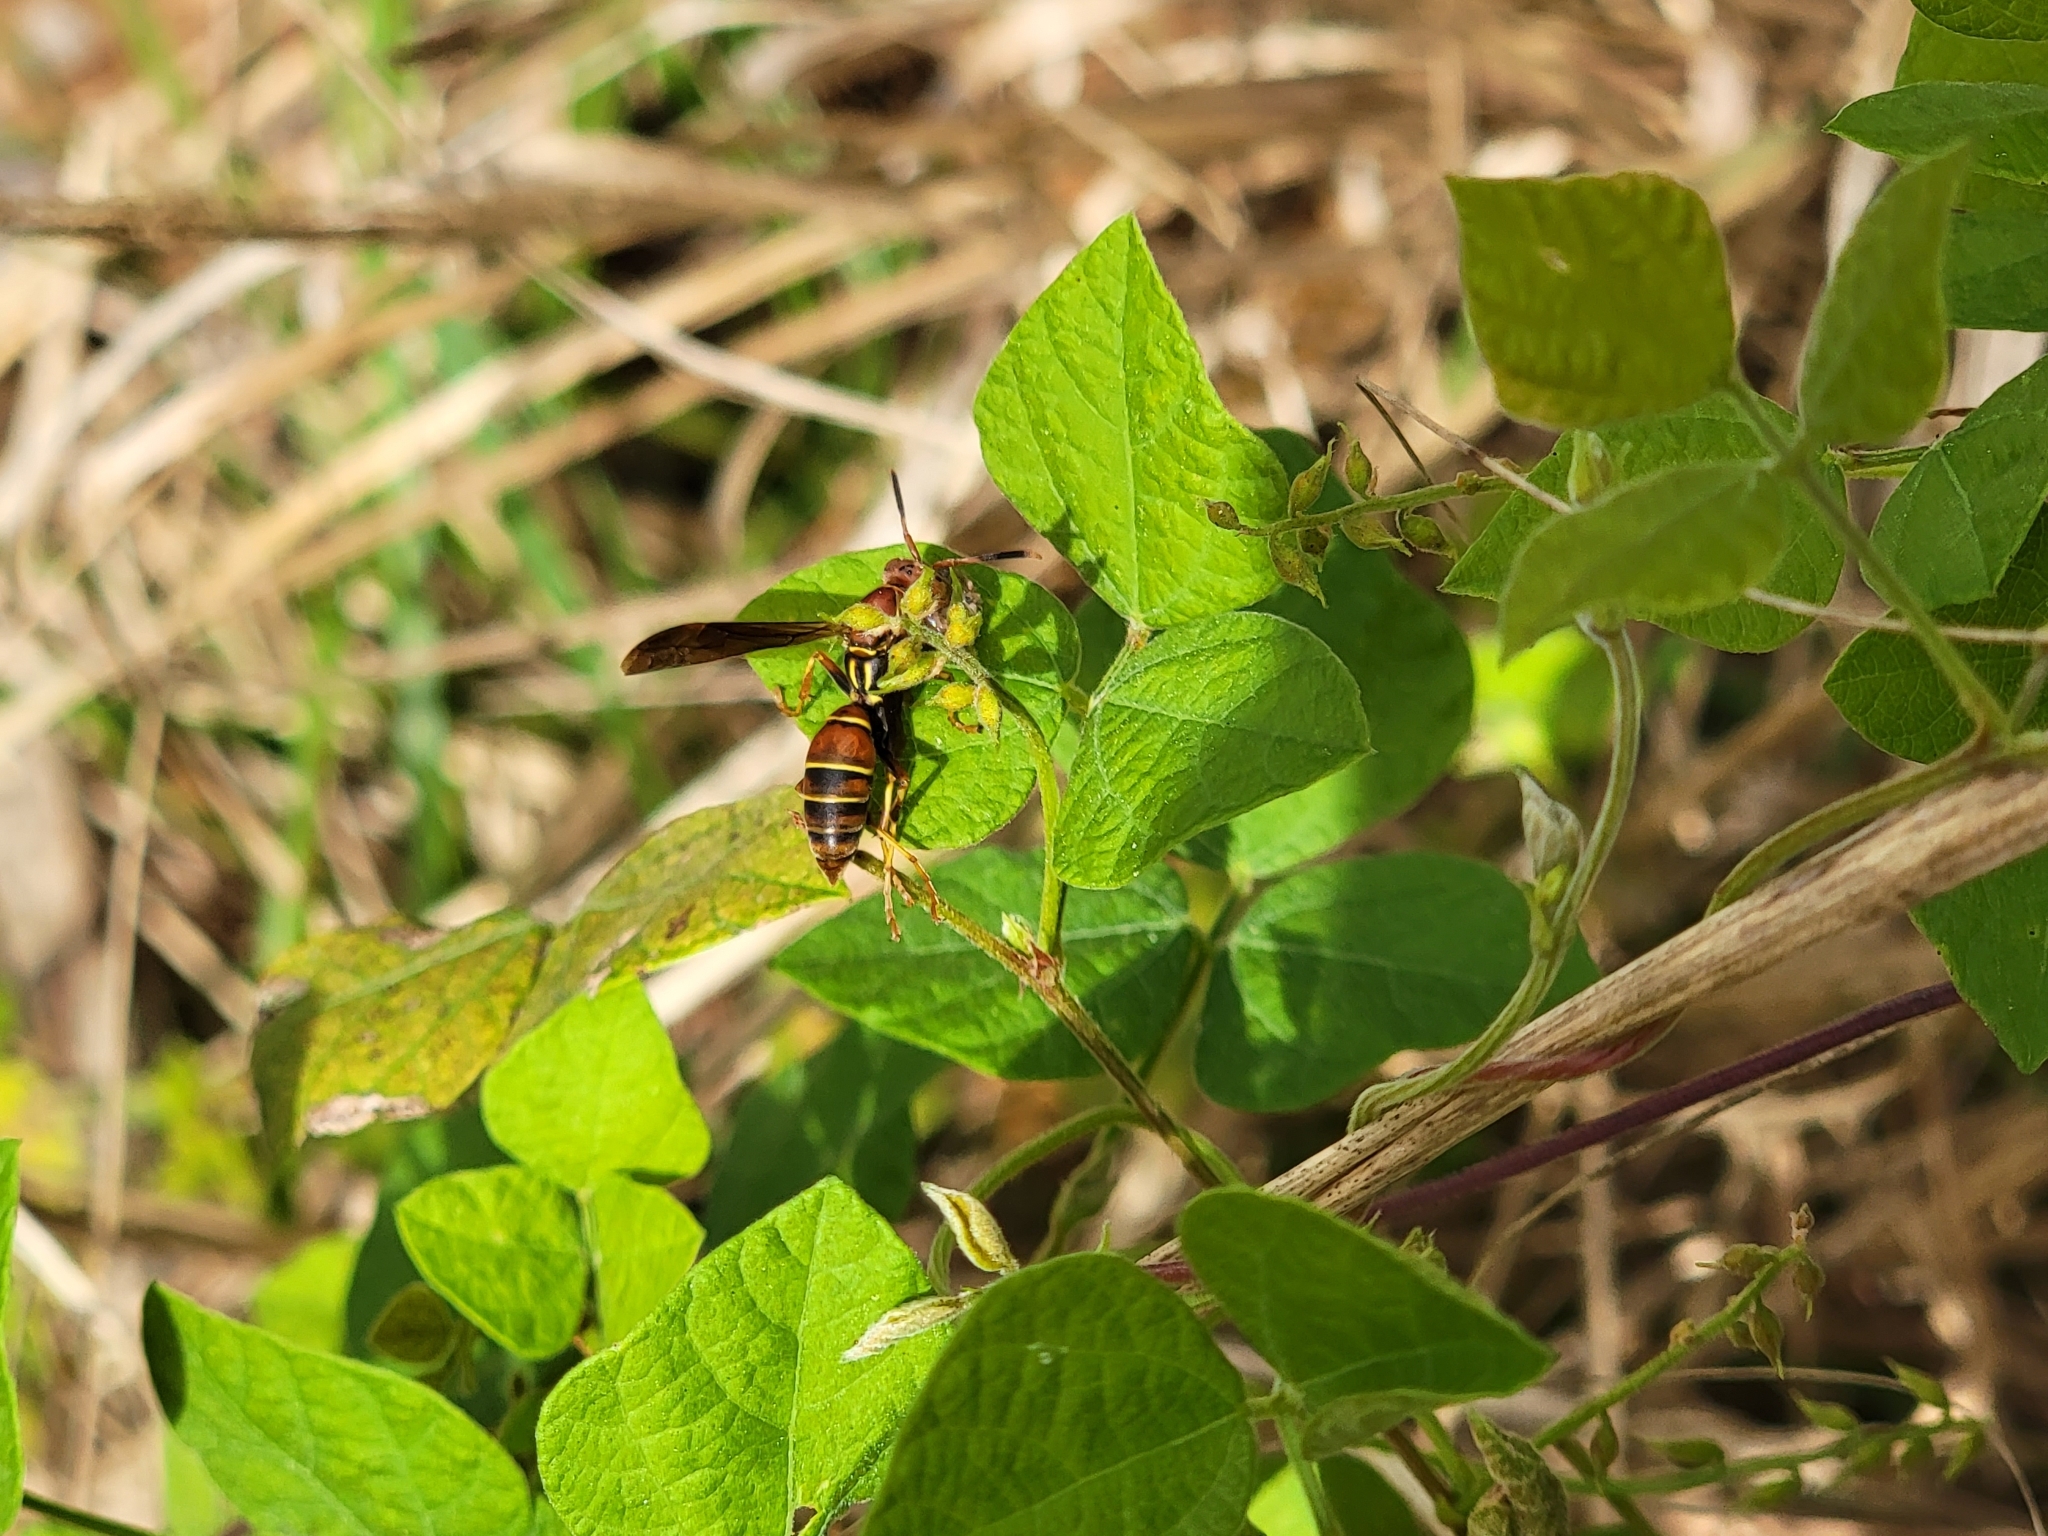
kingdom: Animalia
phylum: Arthropoda
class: Insecta
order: Hymenoptera
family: Eumenidae
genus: Polistes
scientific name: Polistes dorsalis
